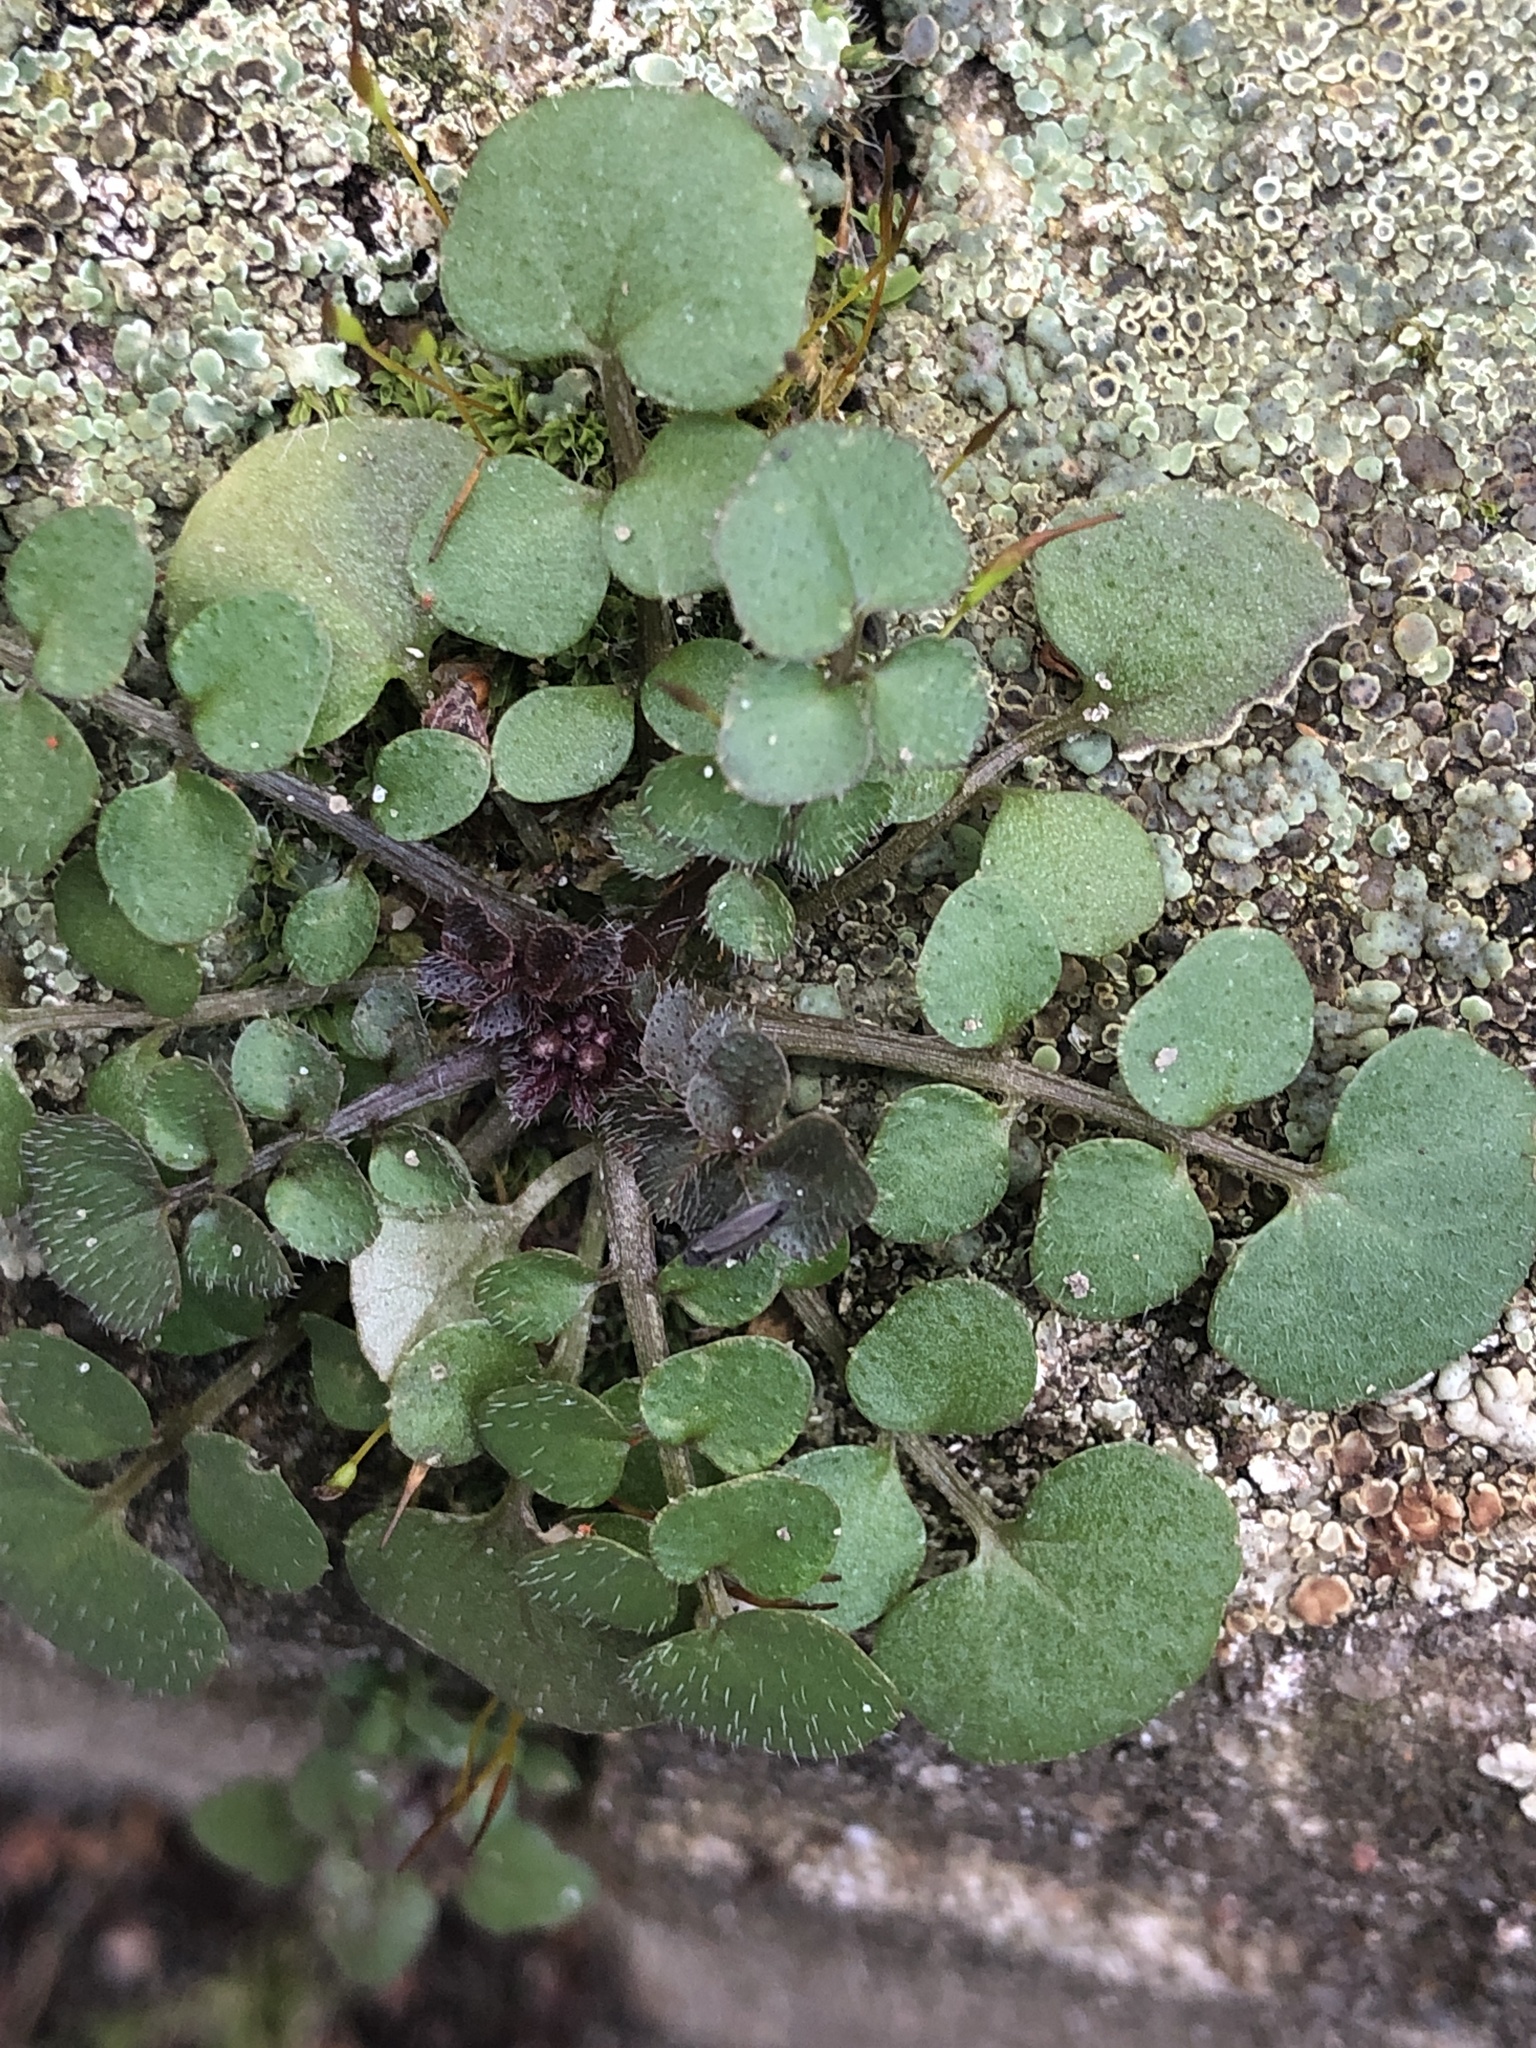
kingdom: Plantae
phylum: Tracheophyta
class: Magnoliopsida
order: Brassicales
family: Brassicaceae
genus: Cardamine
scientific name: Cardamine hirsuta
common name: Hairy bittercress
